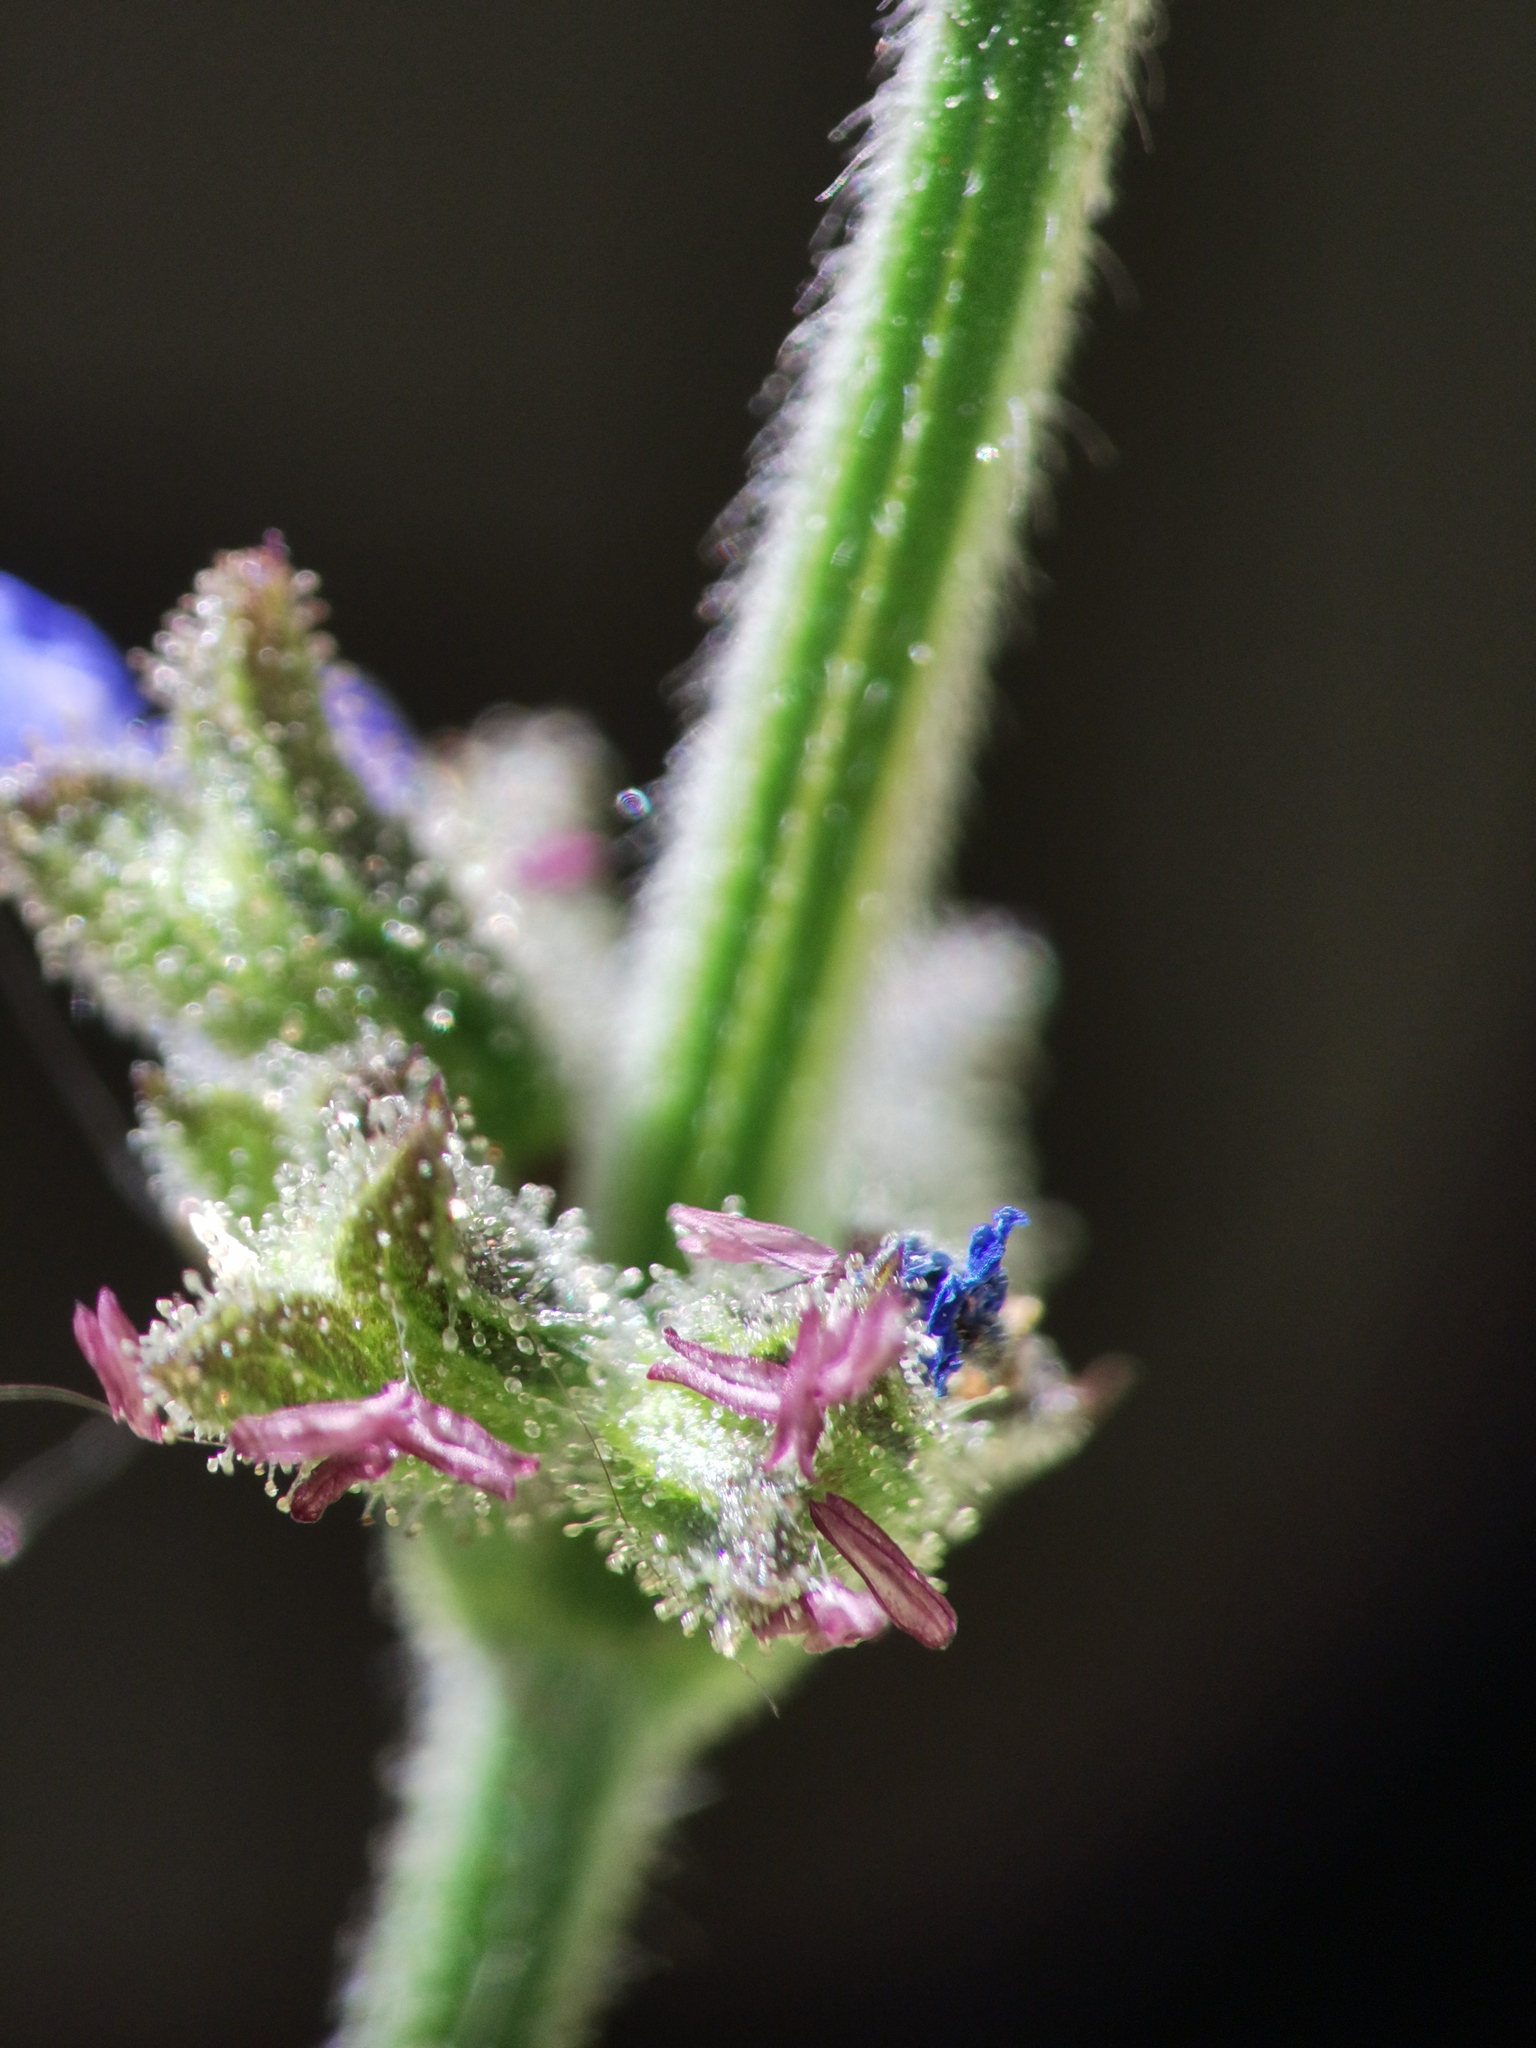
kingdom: Plantae
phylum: Tracheophyta
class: Magnoliopsida
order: Lamiales
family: Lamiaceae
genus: Salvia
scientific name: Salvia misella
